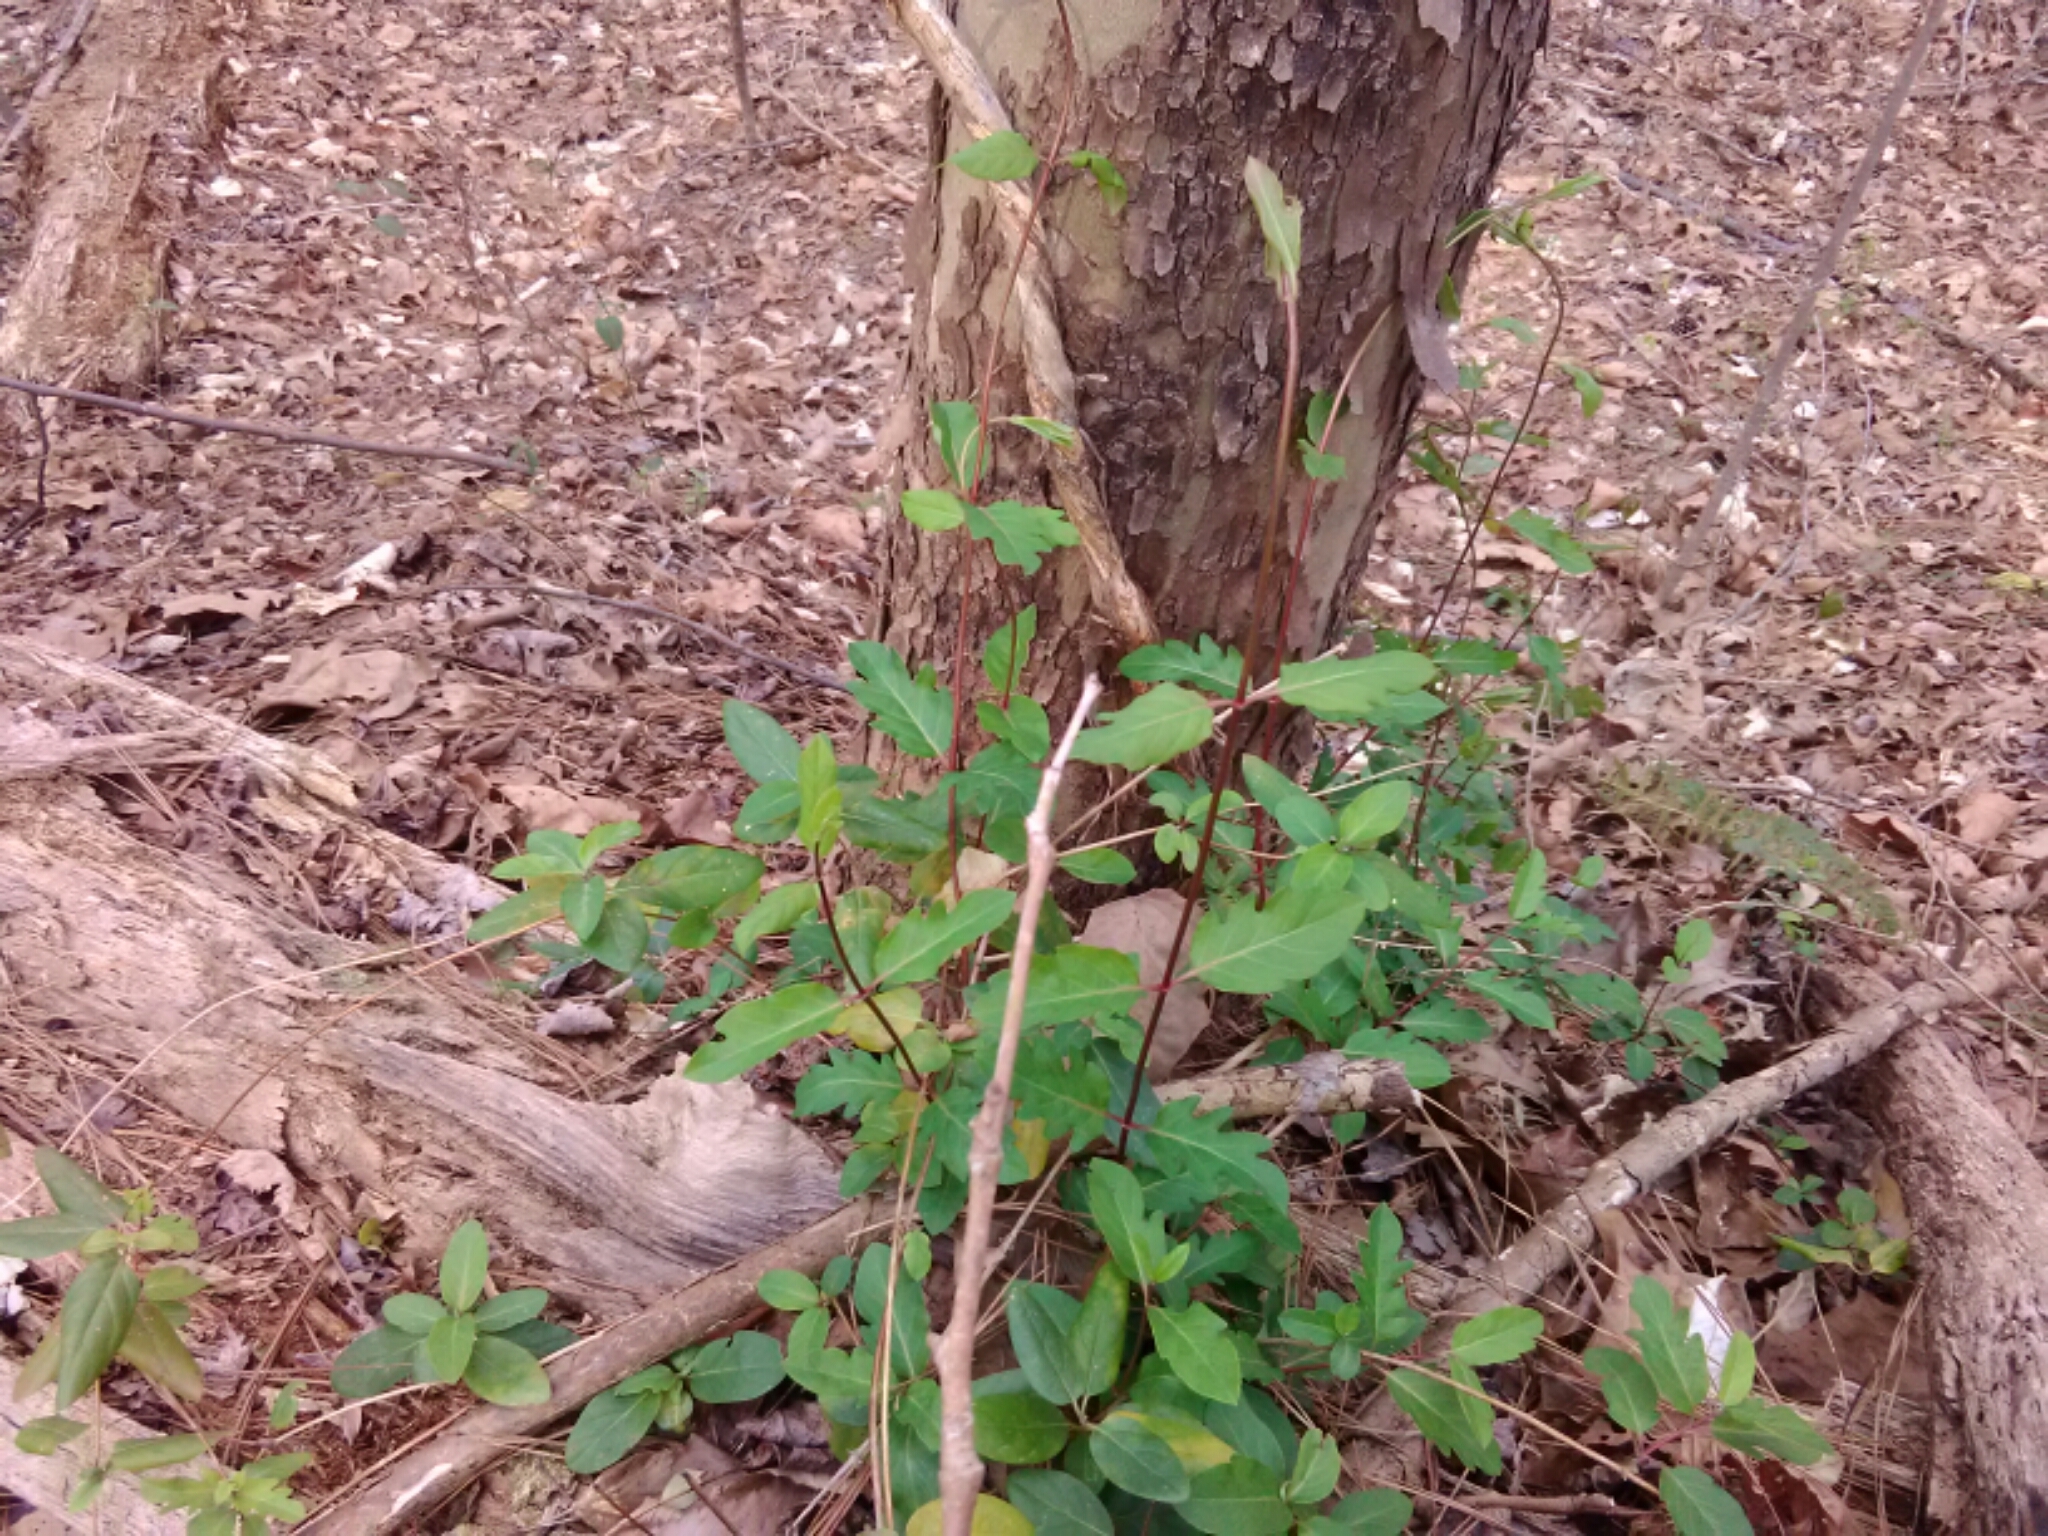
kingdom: Plantae
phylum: Tracheophyta
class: Magnoliopsida
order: Dipsacales
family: Caprifoliaceae
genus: Lonicera
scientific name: Lonicera japonica
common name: Japanese honeysuckle
